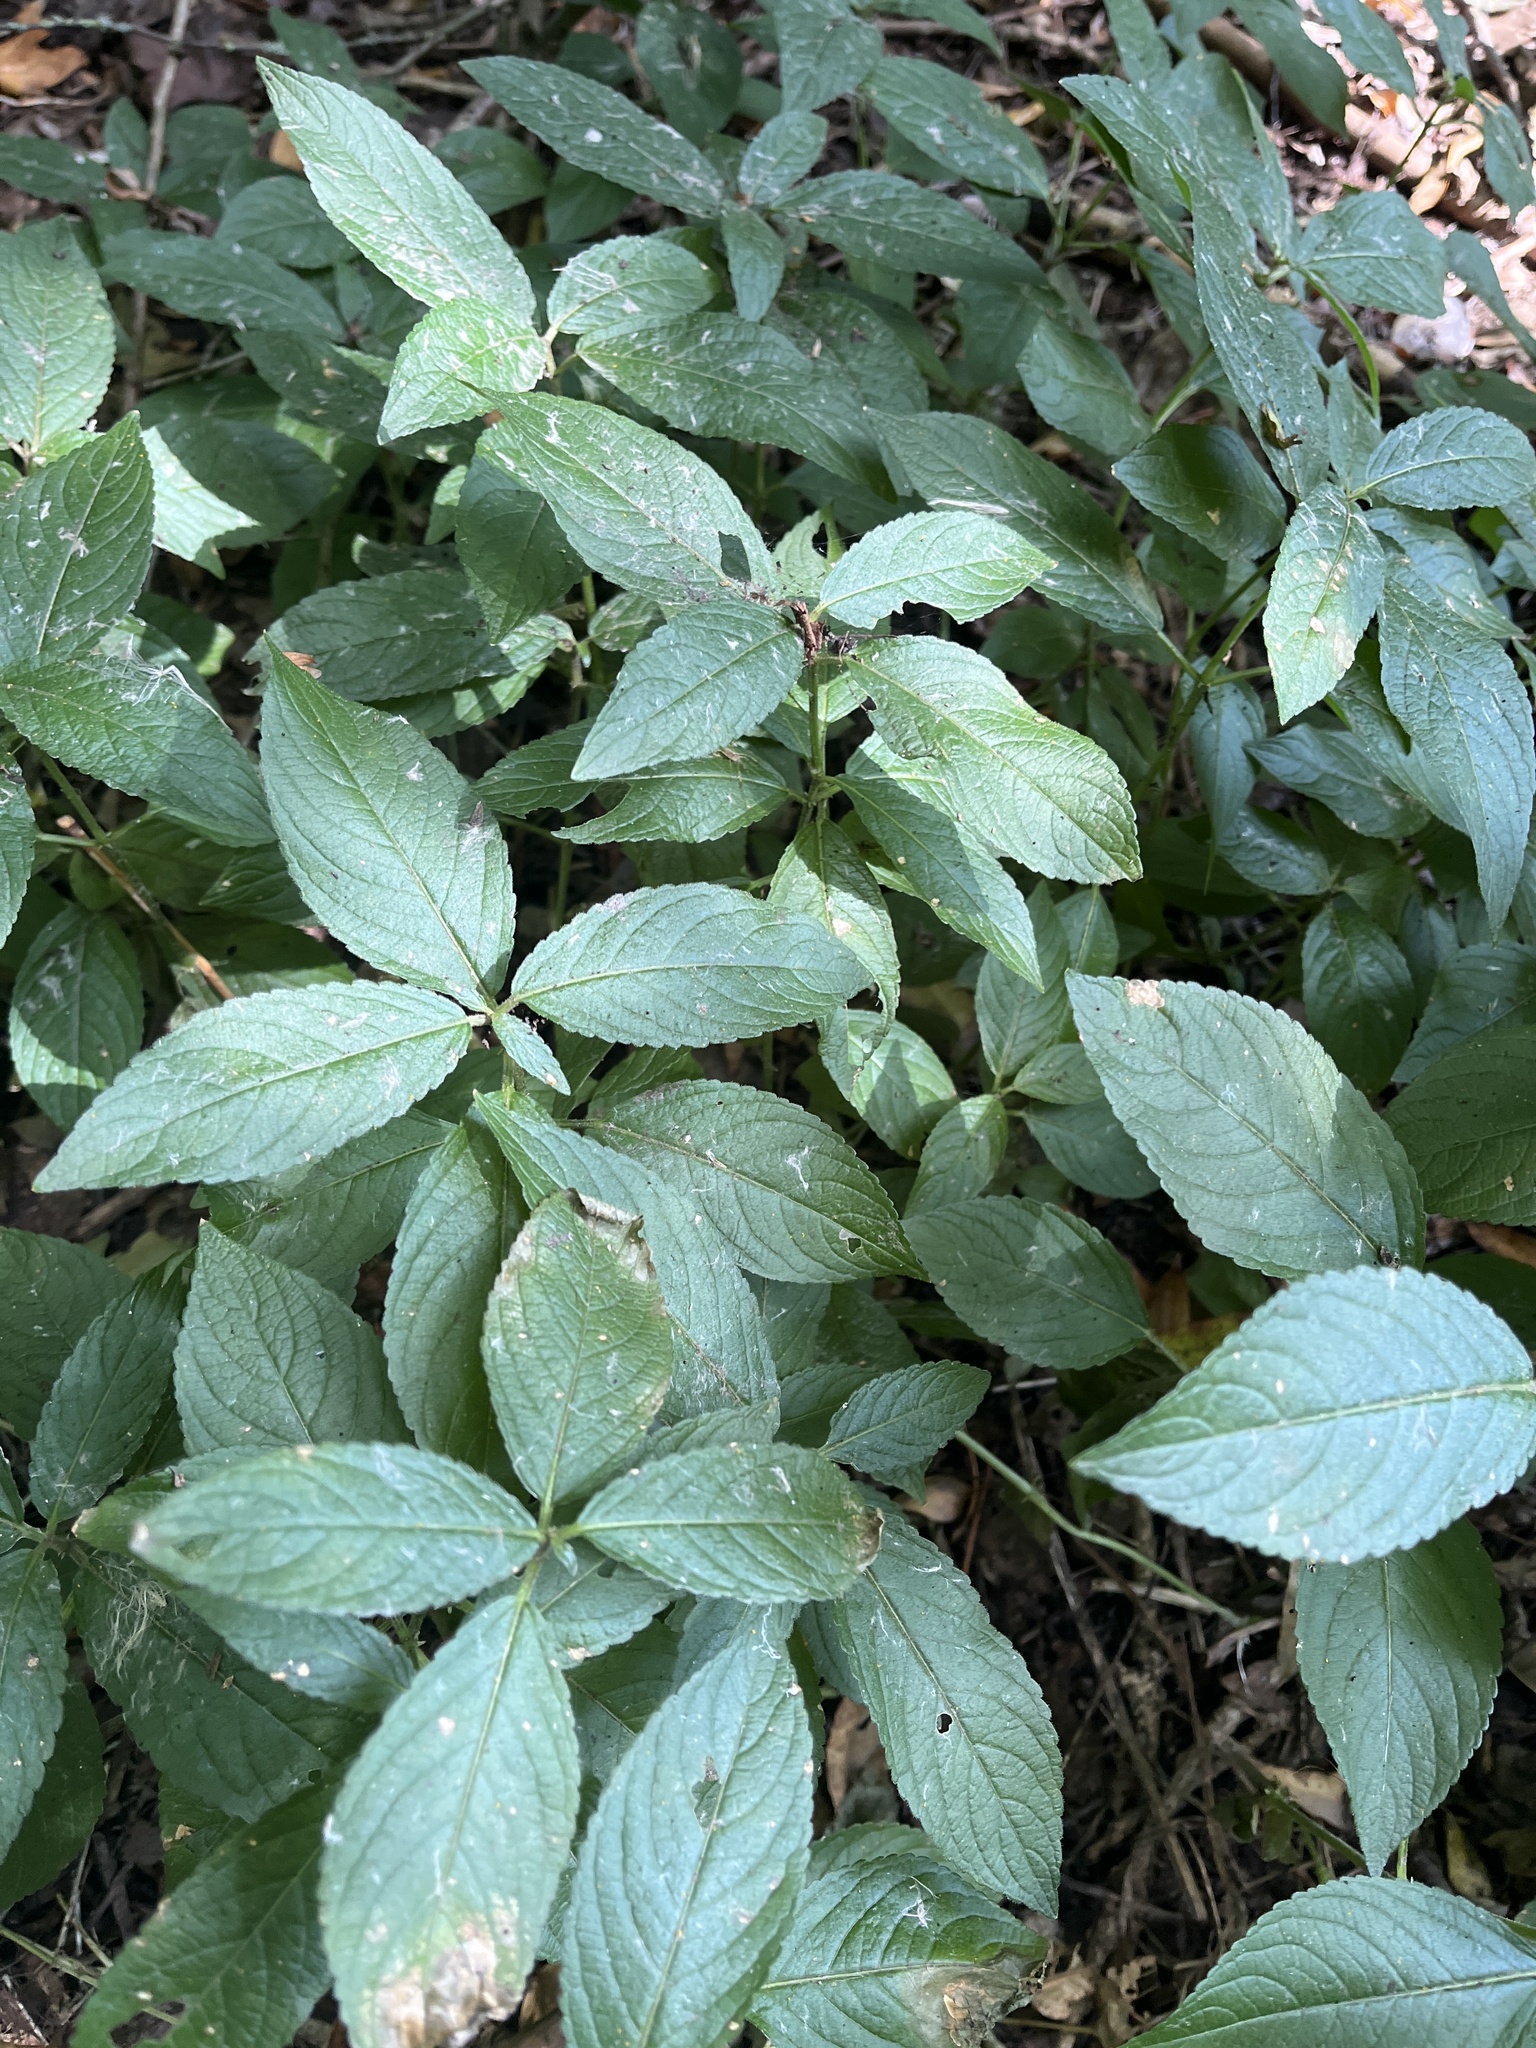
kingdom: Plantae
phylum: Tracheophyta
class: Magnoliopsida
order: Malpighiales
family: Euphorbiaceae
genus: Mercurialis
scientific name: Mercurialis perennis
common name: Dog mercury
